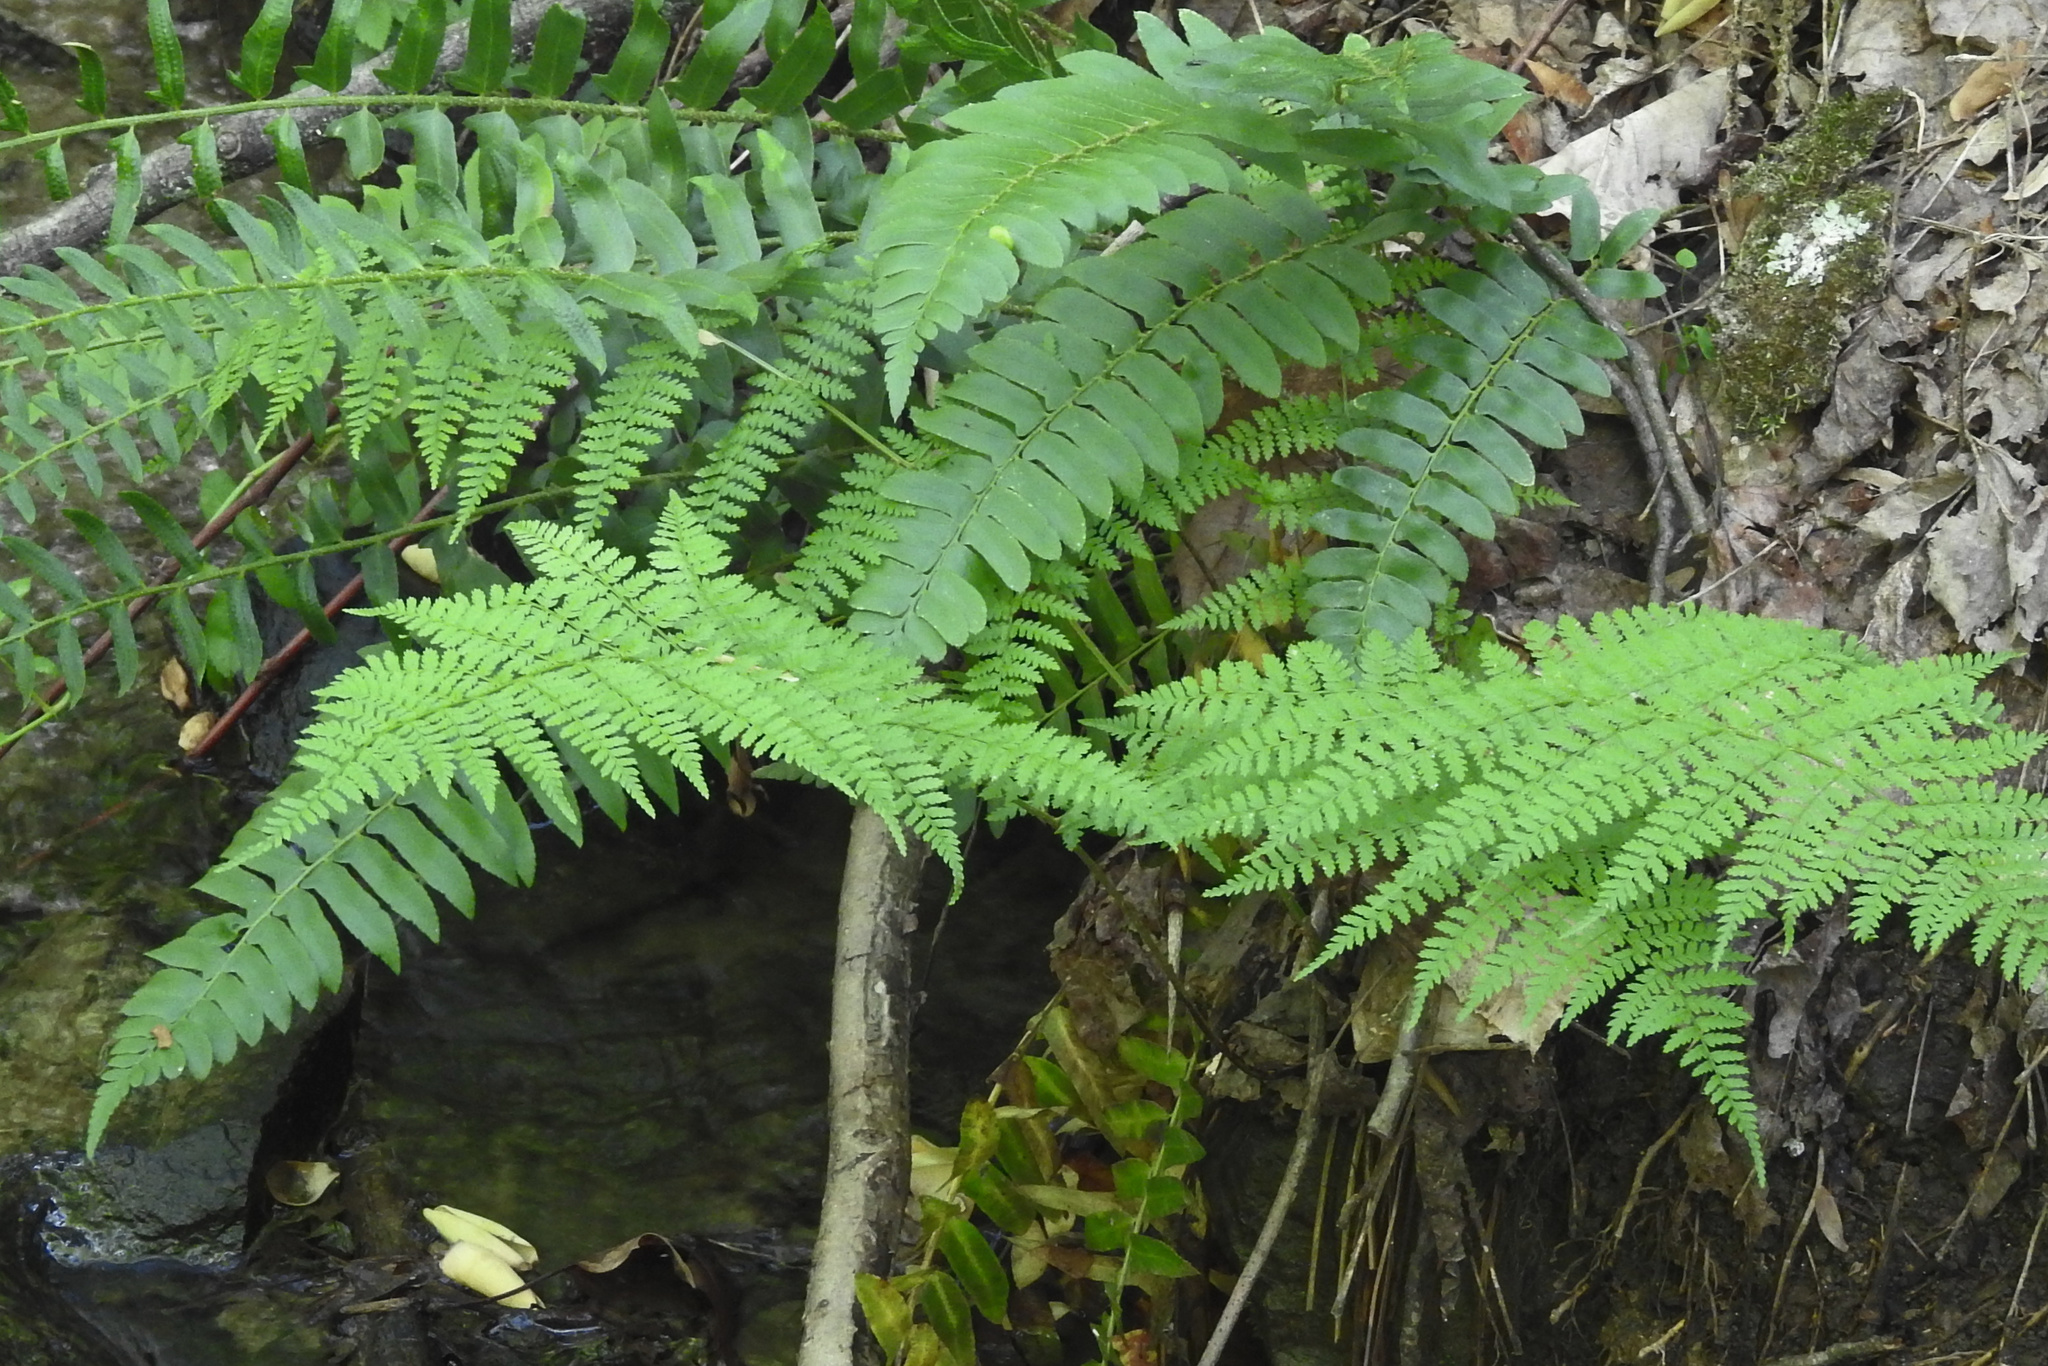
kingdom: Plantae
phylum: Tracheophyta
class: Polypodiopsida
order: Polypodiales
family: Dennstaedtiaceae
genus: Sitobolium
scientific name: Sitobolium punctilobum
